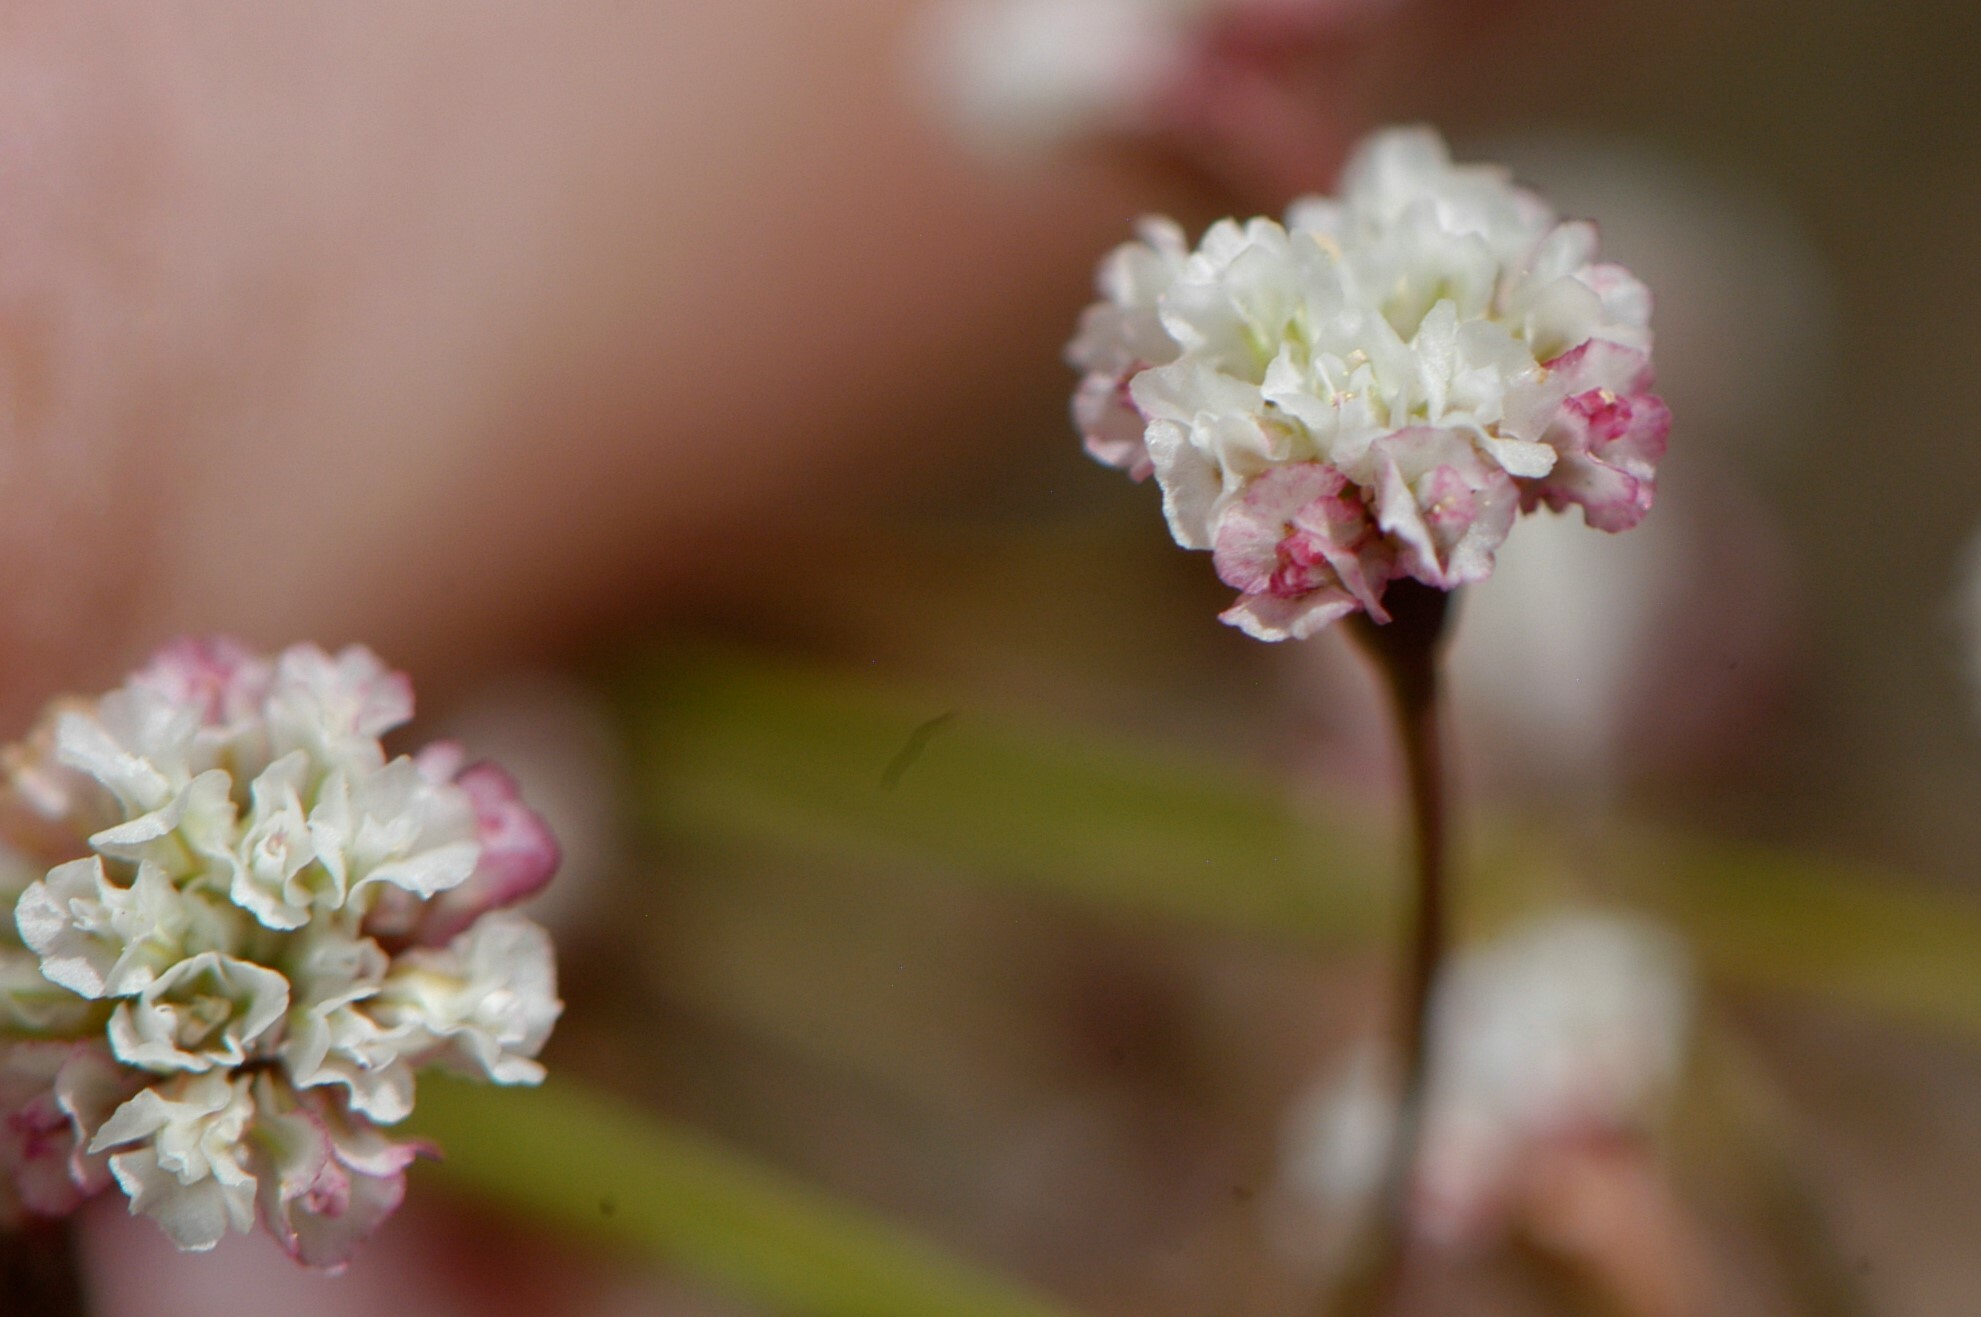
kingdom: Plantae
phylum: Tracheophyta
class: Magnoliopsida
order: Caryophyllales
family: Polygonaceae
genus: Eriogonum
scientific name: Eriogonum cernuum
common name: Nodding wild buckwheat
